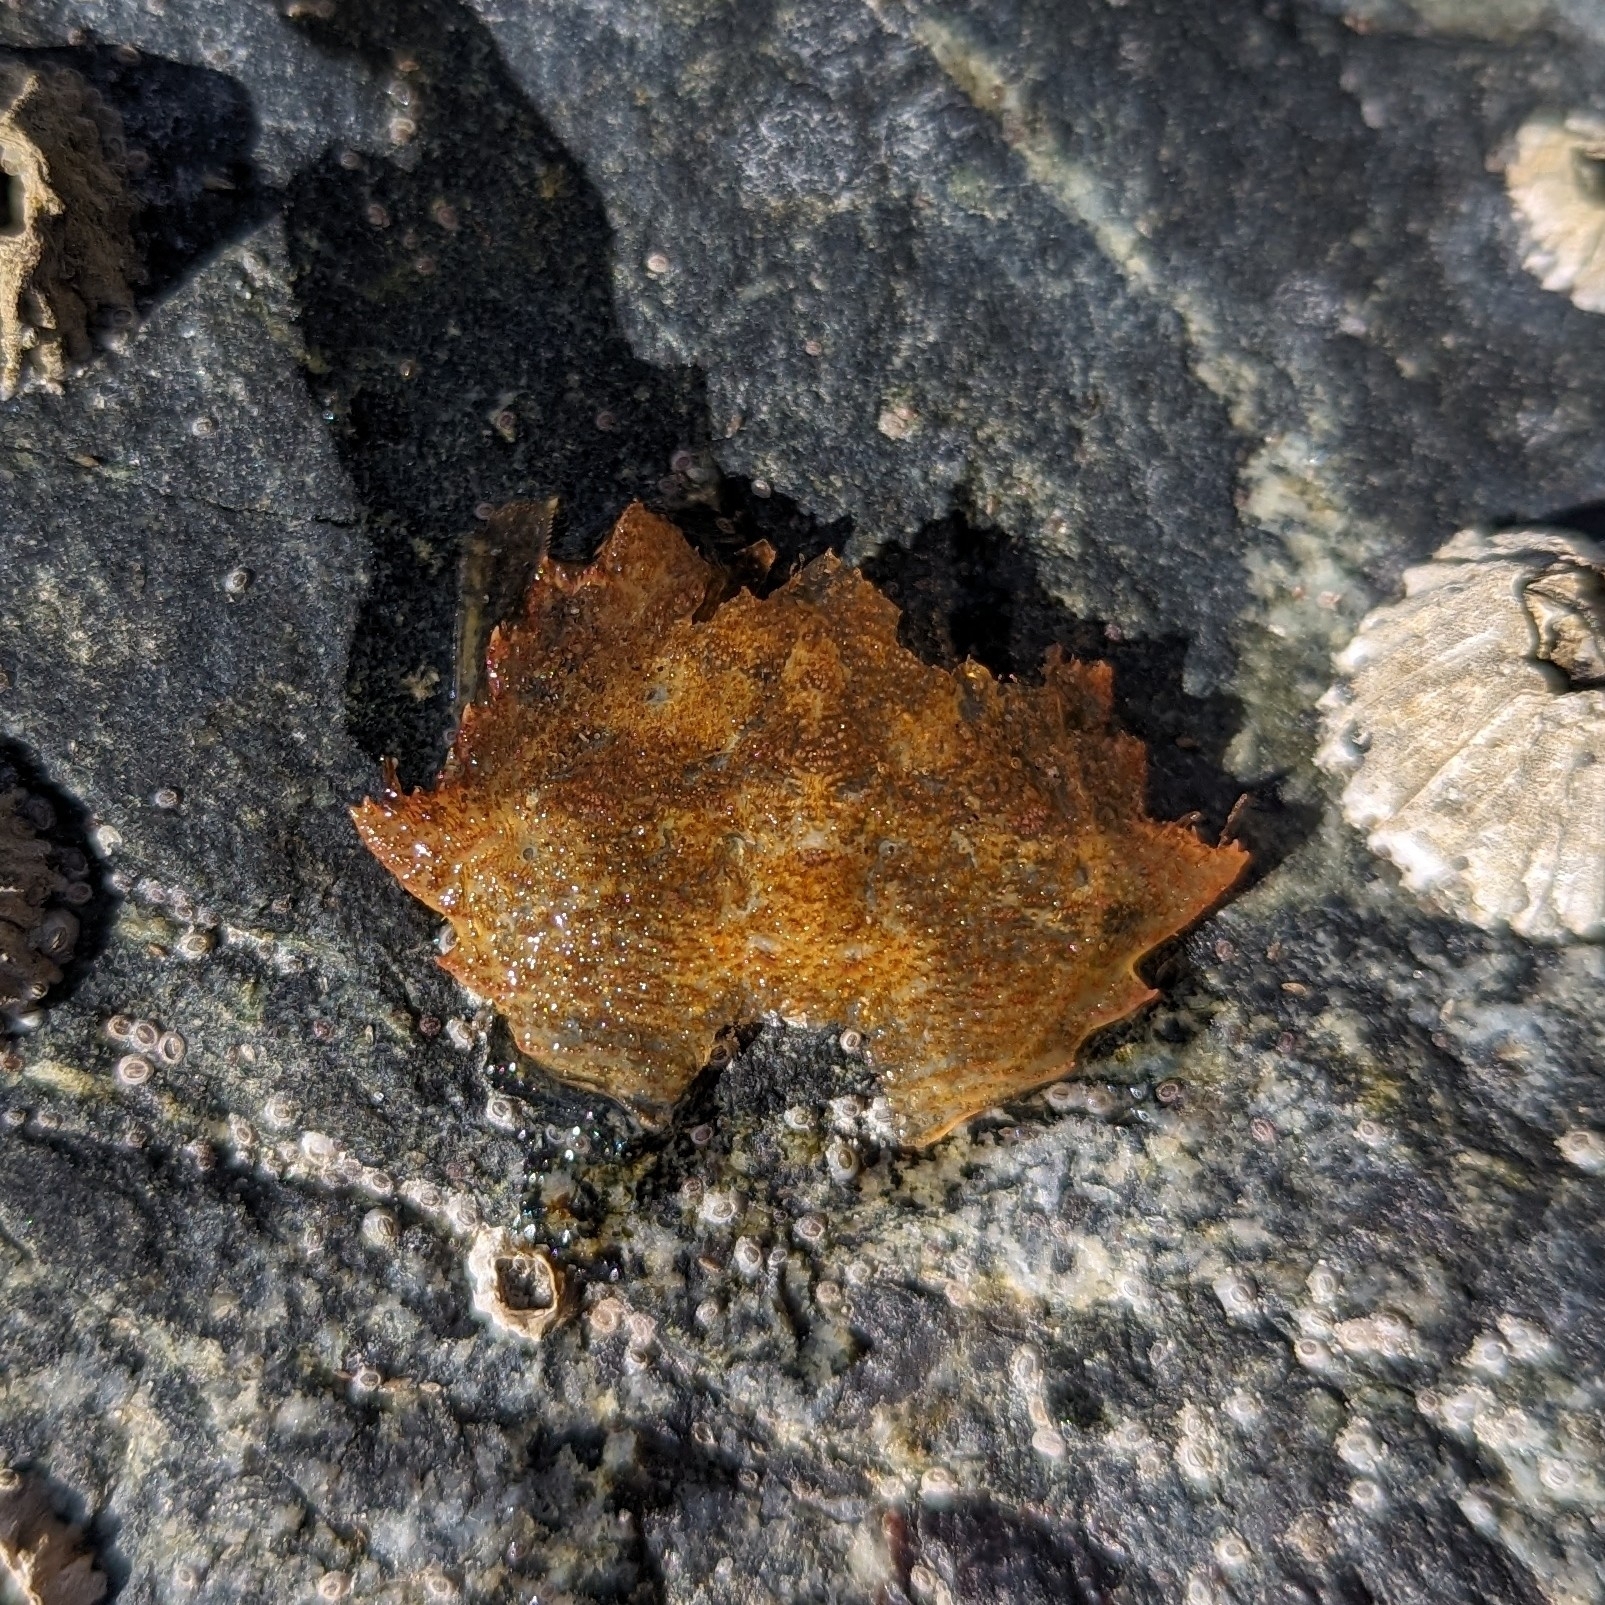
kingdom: Animalia
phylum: Arthropoda
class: Malacostraca
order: Decapoda
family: Cheiragonidae
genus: Telmessus
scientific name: Telmessus cheiragonus
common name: Helmet crab
